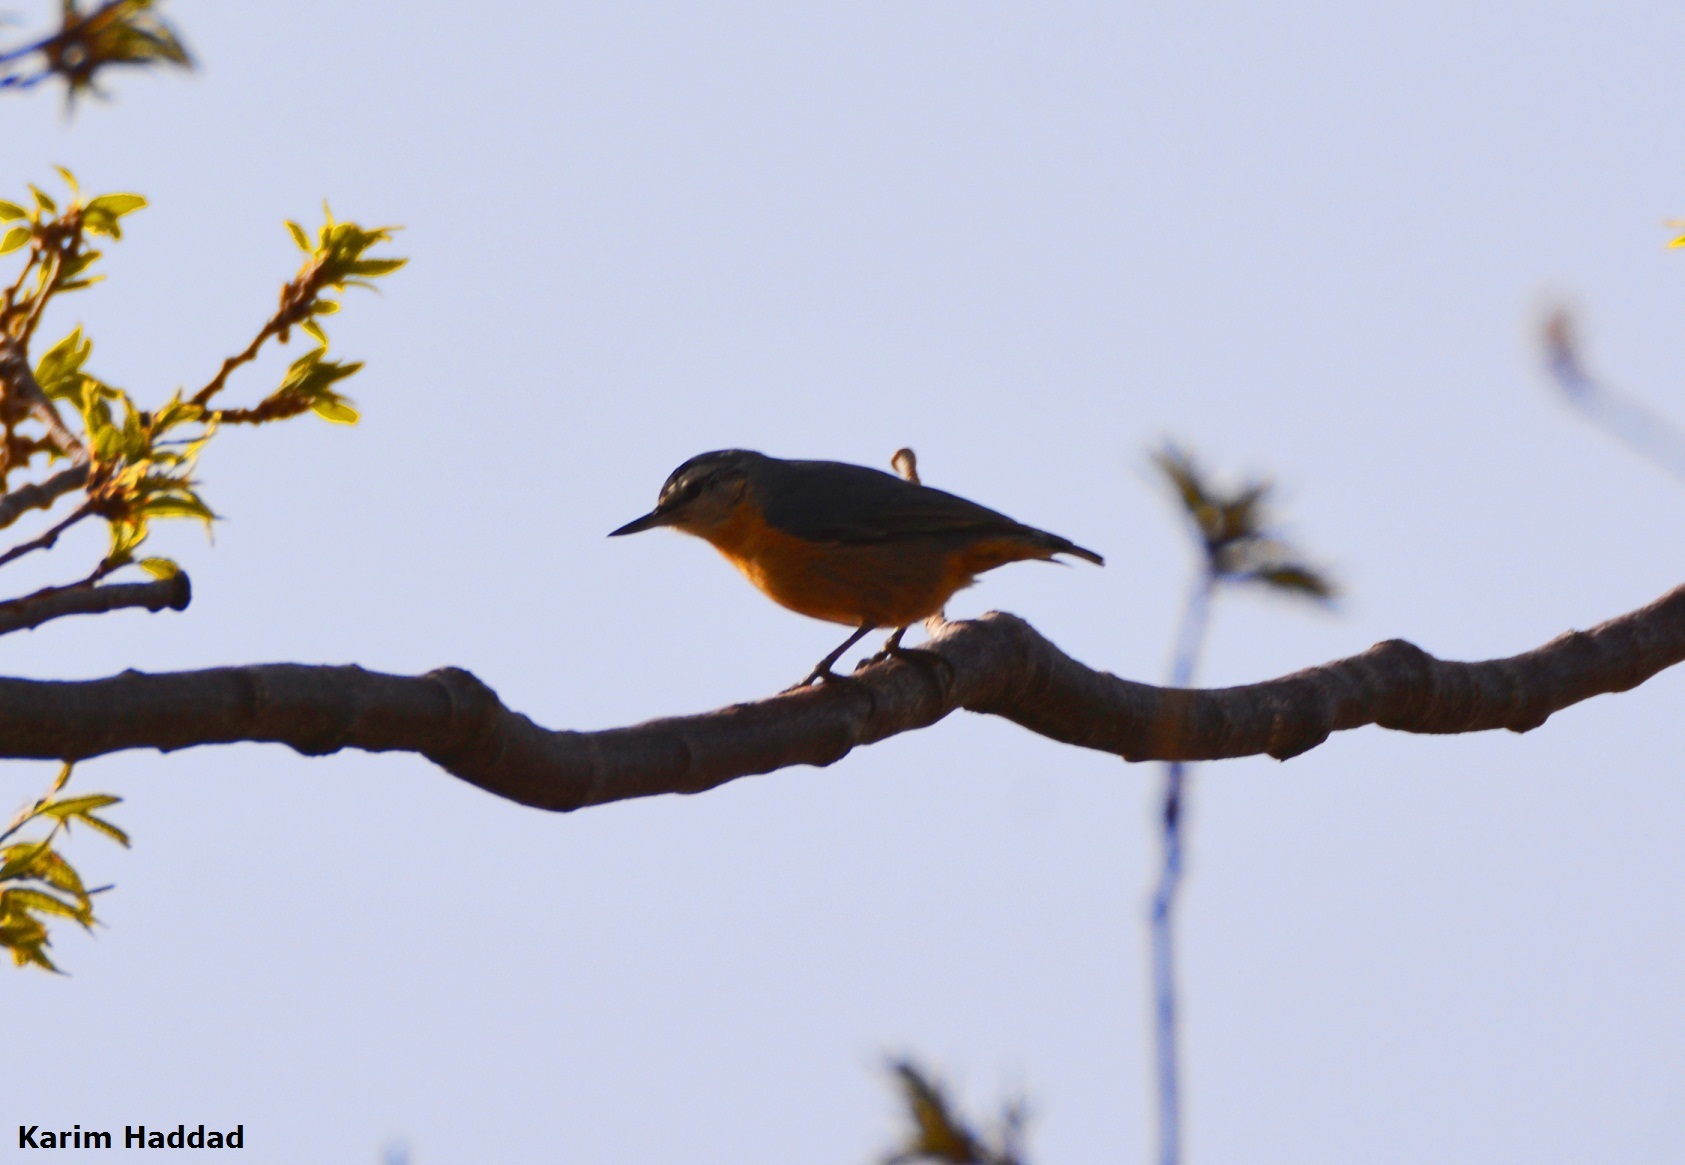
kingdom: Animalia
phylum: Chordata
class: Aves
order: Passeriformes
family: Sittidae
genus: Sitta
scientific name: Sitta ledanti
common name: Algerian nuthatch
